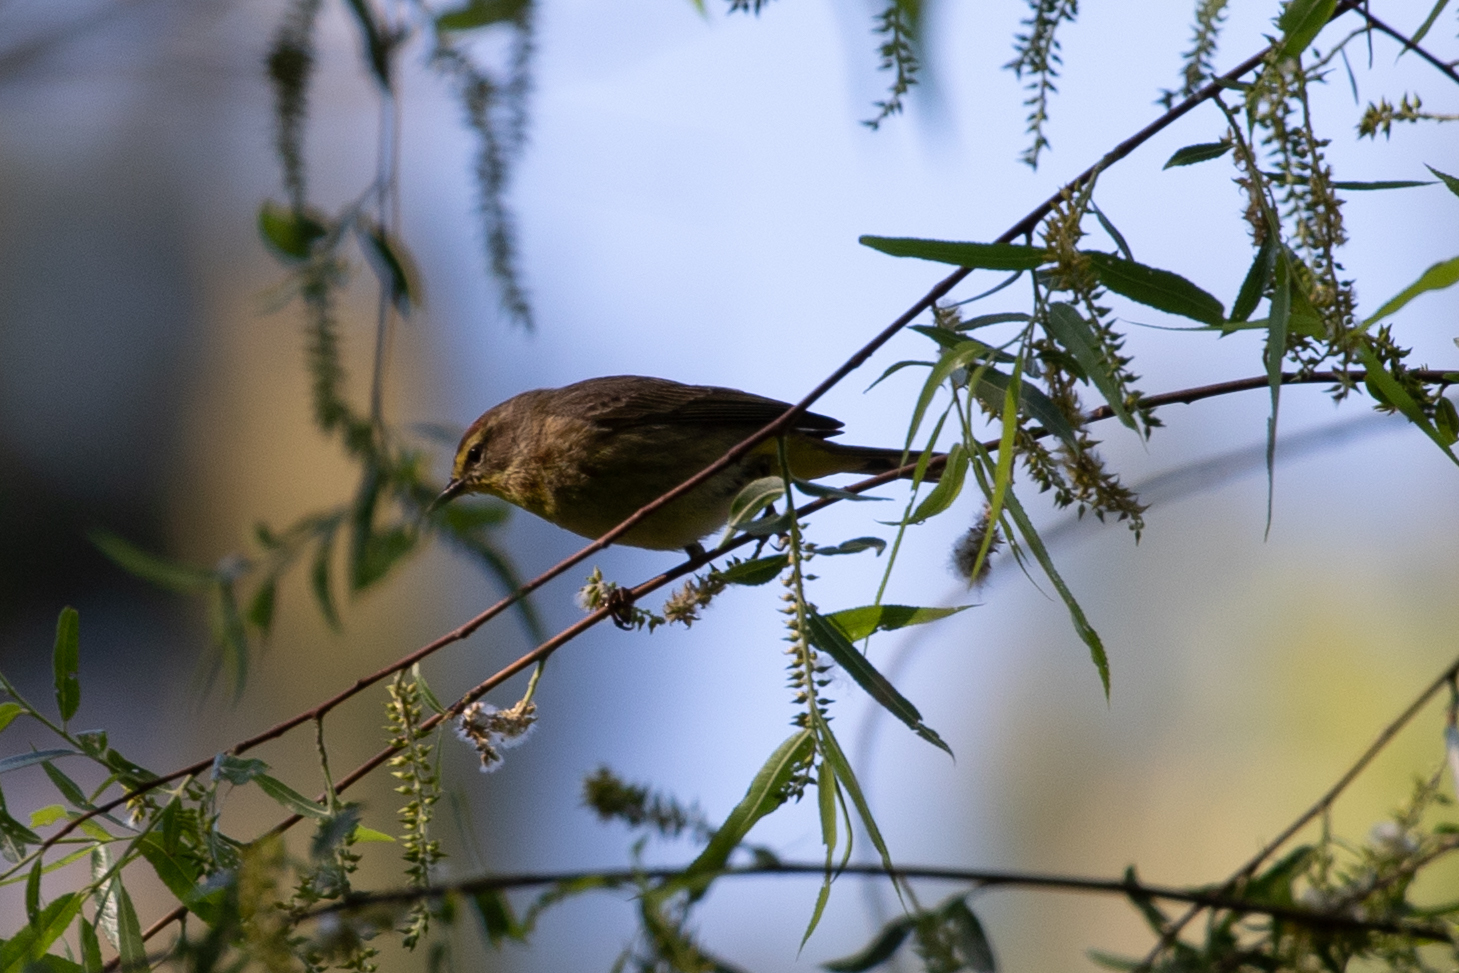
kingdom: Animalia
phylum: Chordata
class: Aves
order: Passeriformes
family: Parulidae
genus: Setophaga
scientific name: Setophaga palmarum
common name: Palm warbler
